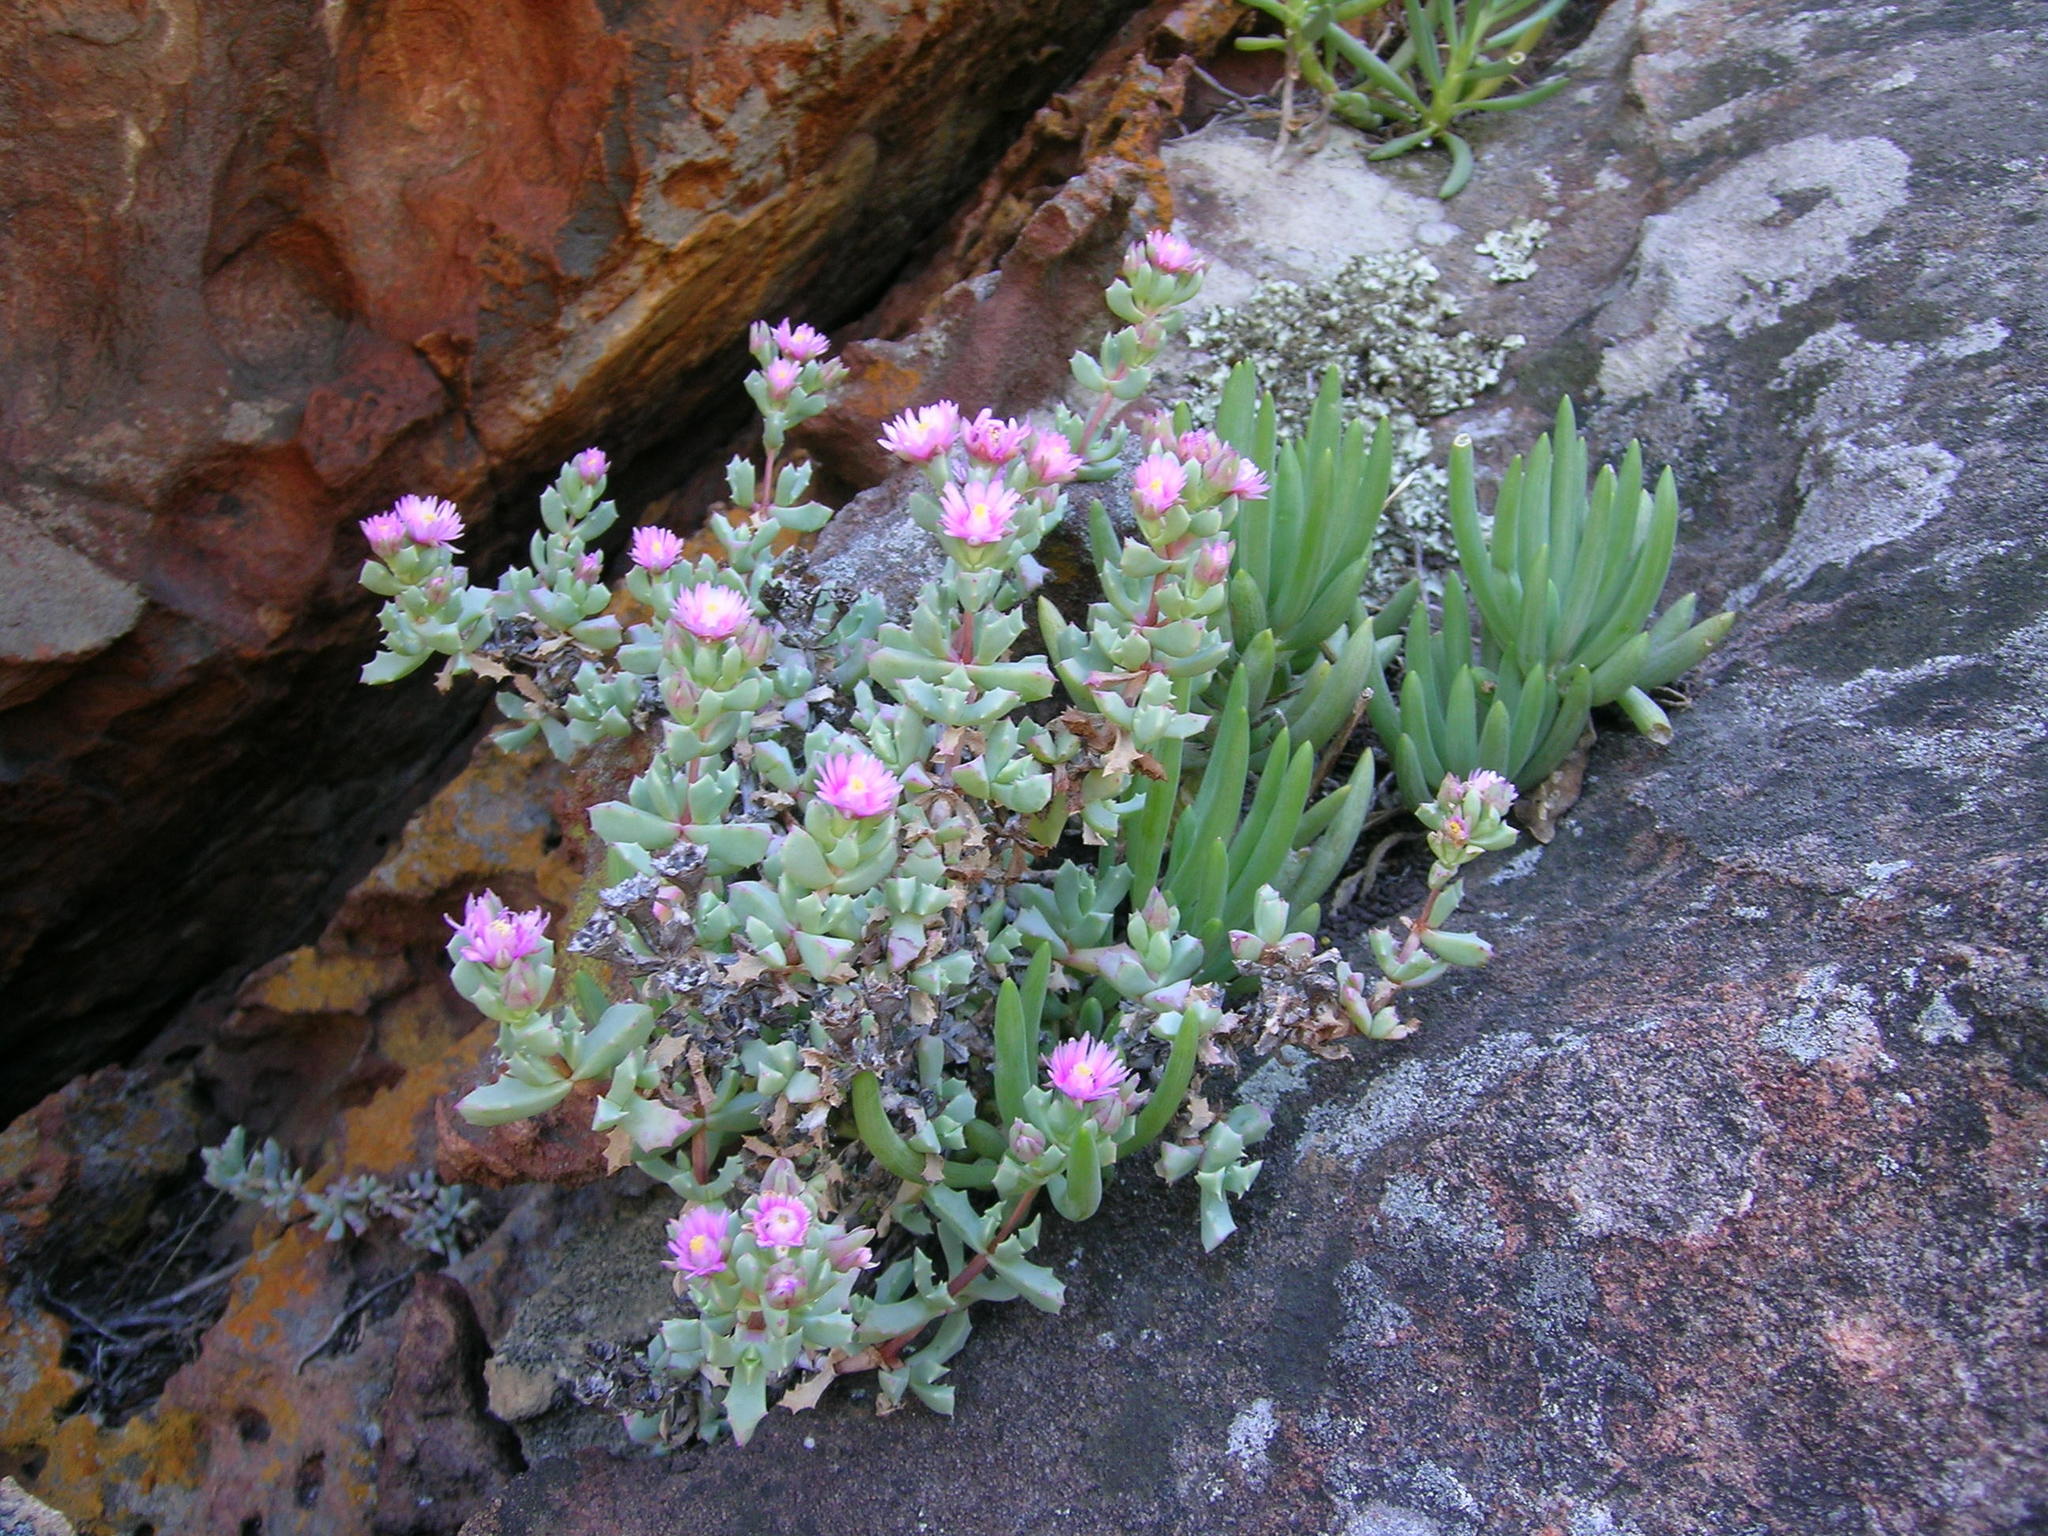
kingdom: Plantae
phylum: Tracheophyta
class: Magnoliopsida
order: Caryophyllales
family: Aizoaceae
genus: Oscularia
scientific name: Oscularia deltoides
